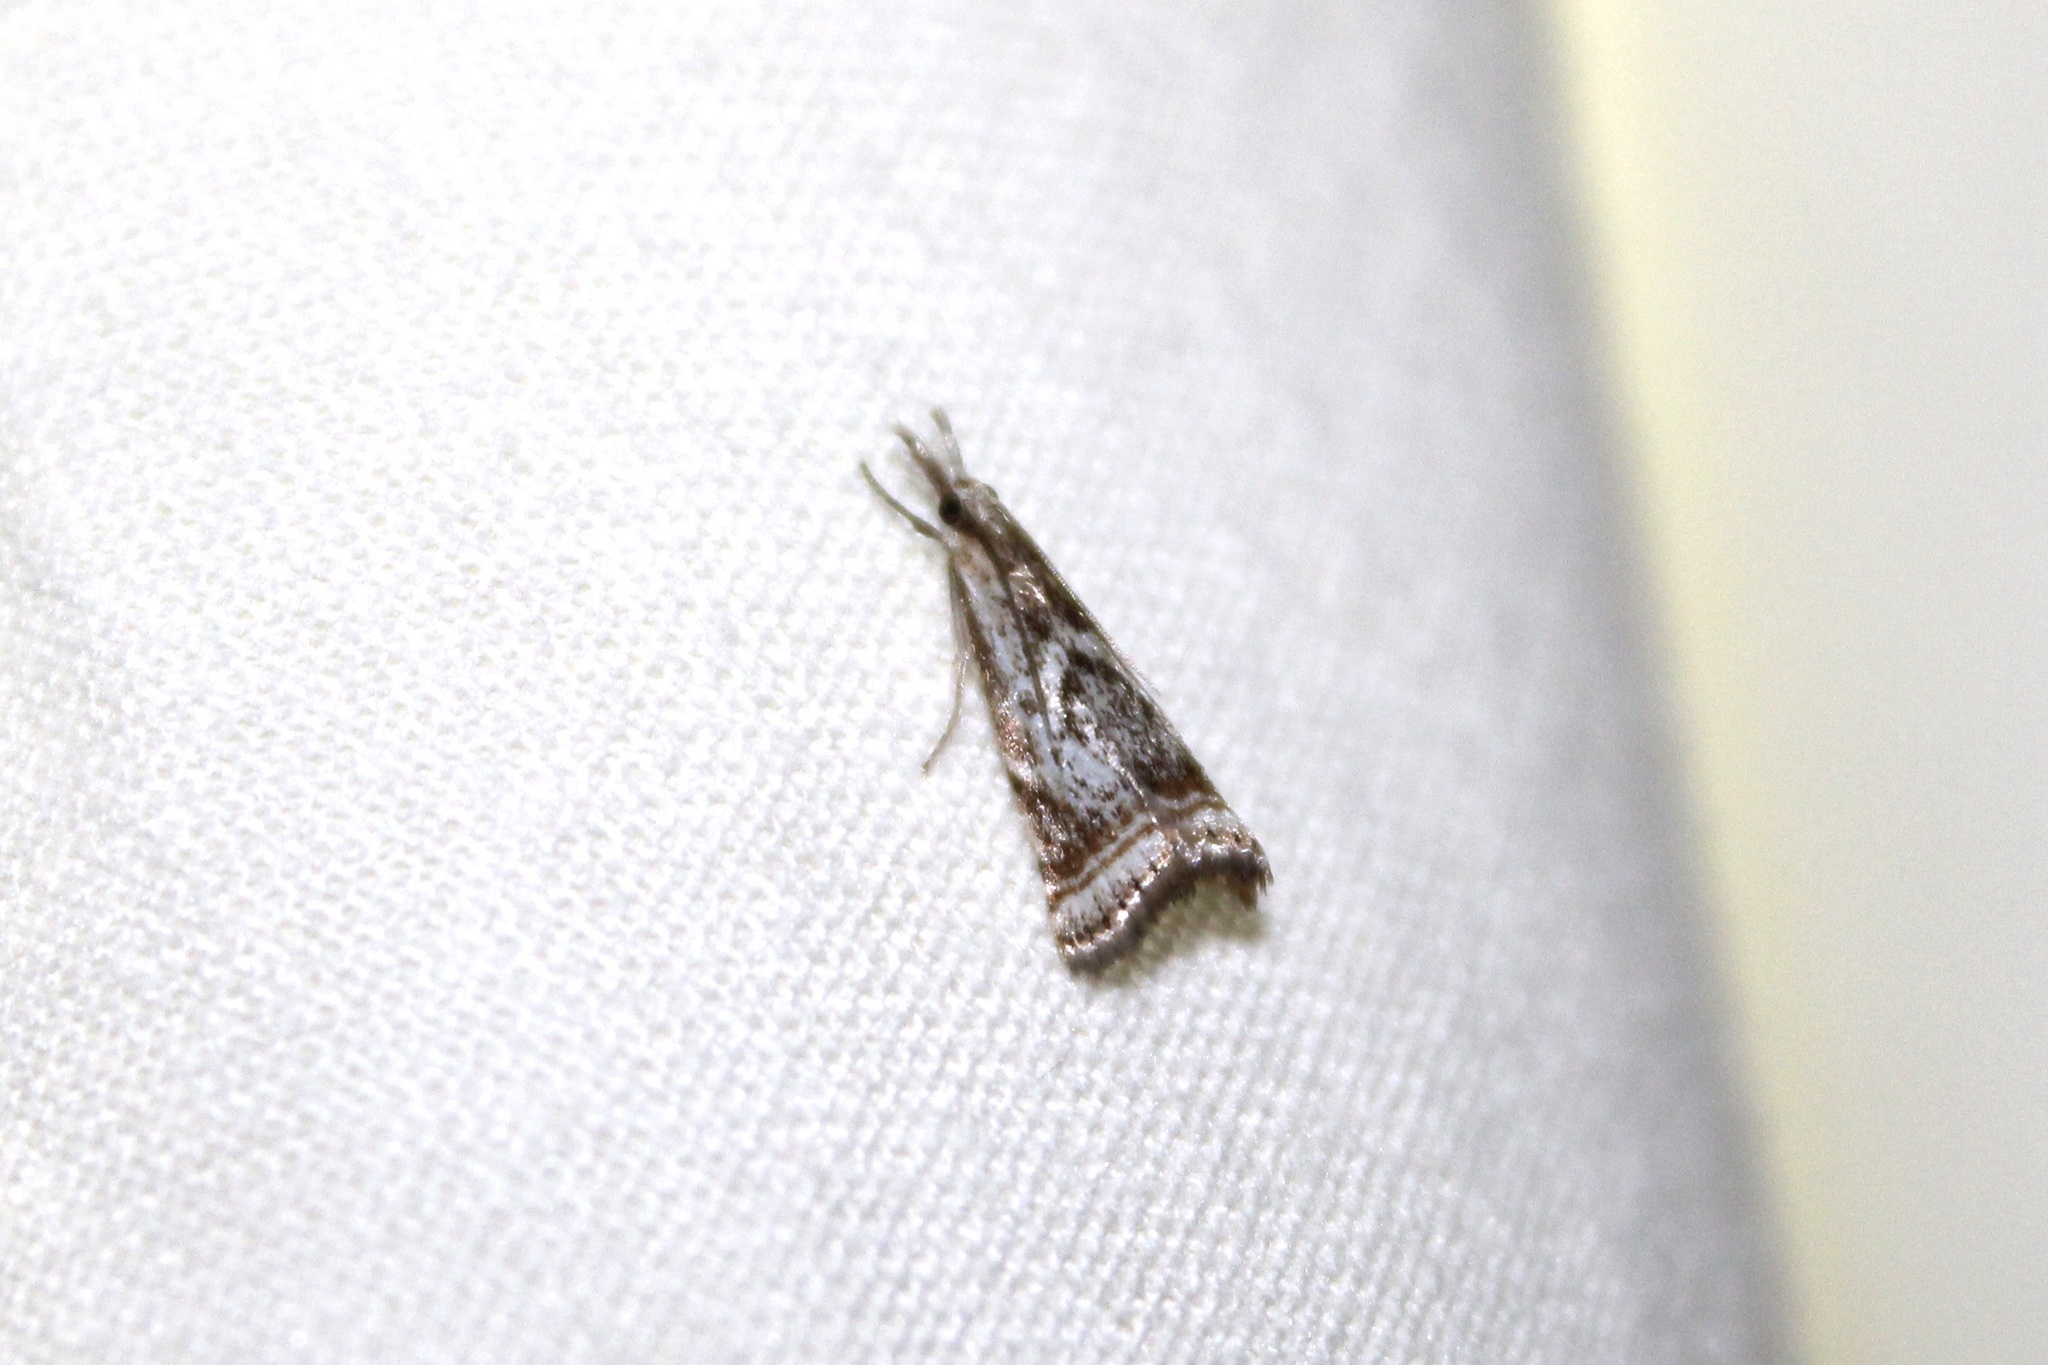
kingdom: Animalia
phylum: Arthropoda
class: Insecta
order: Lepidoptera
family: Crambidae
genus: Microcrambus
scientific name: Microcrambus elegans
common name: Elegant grass-veneer
